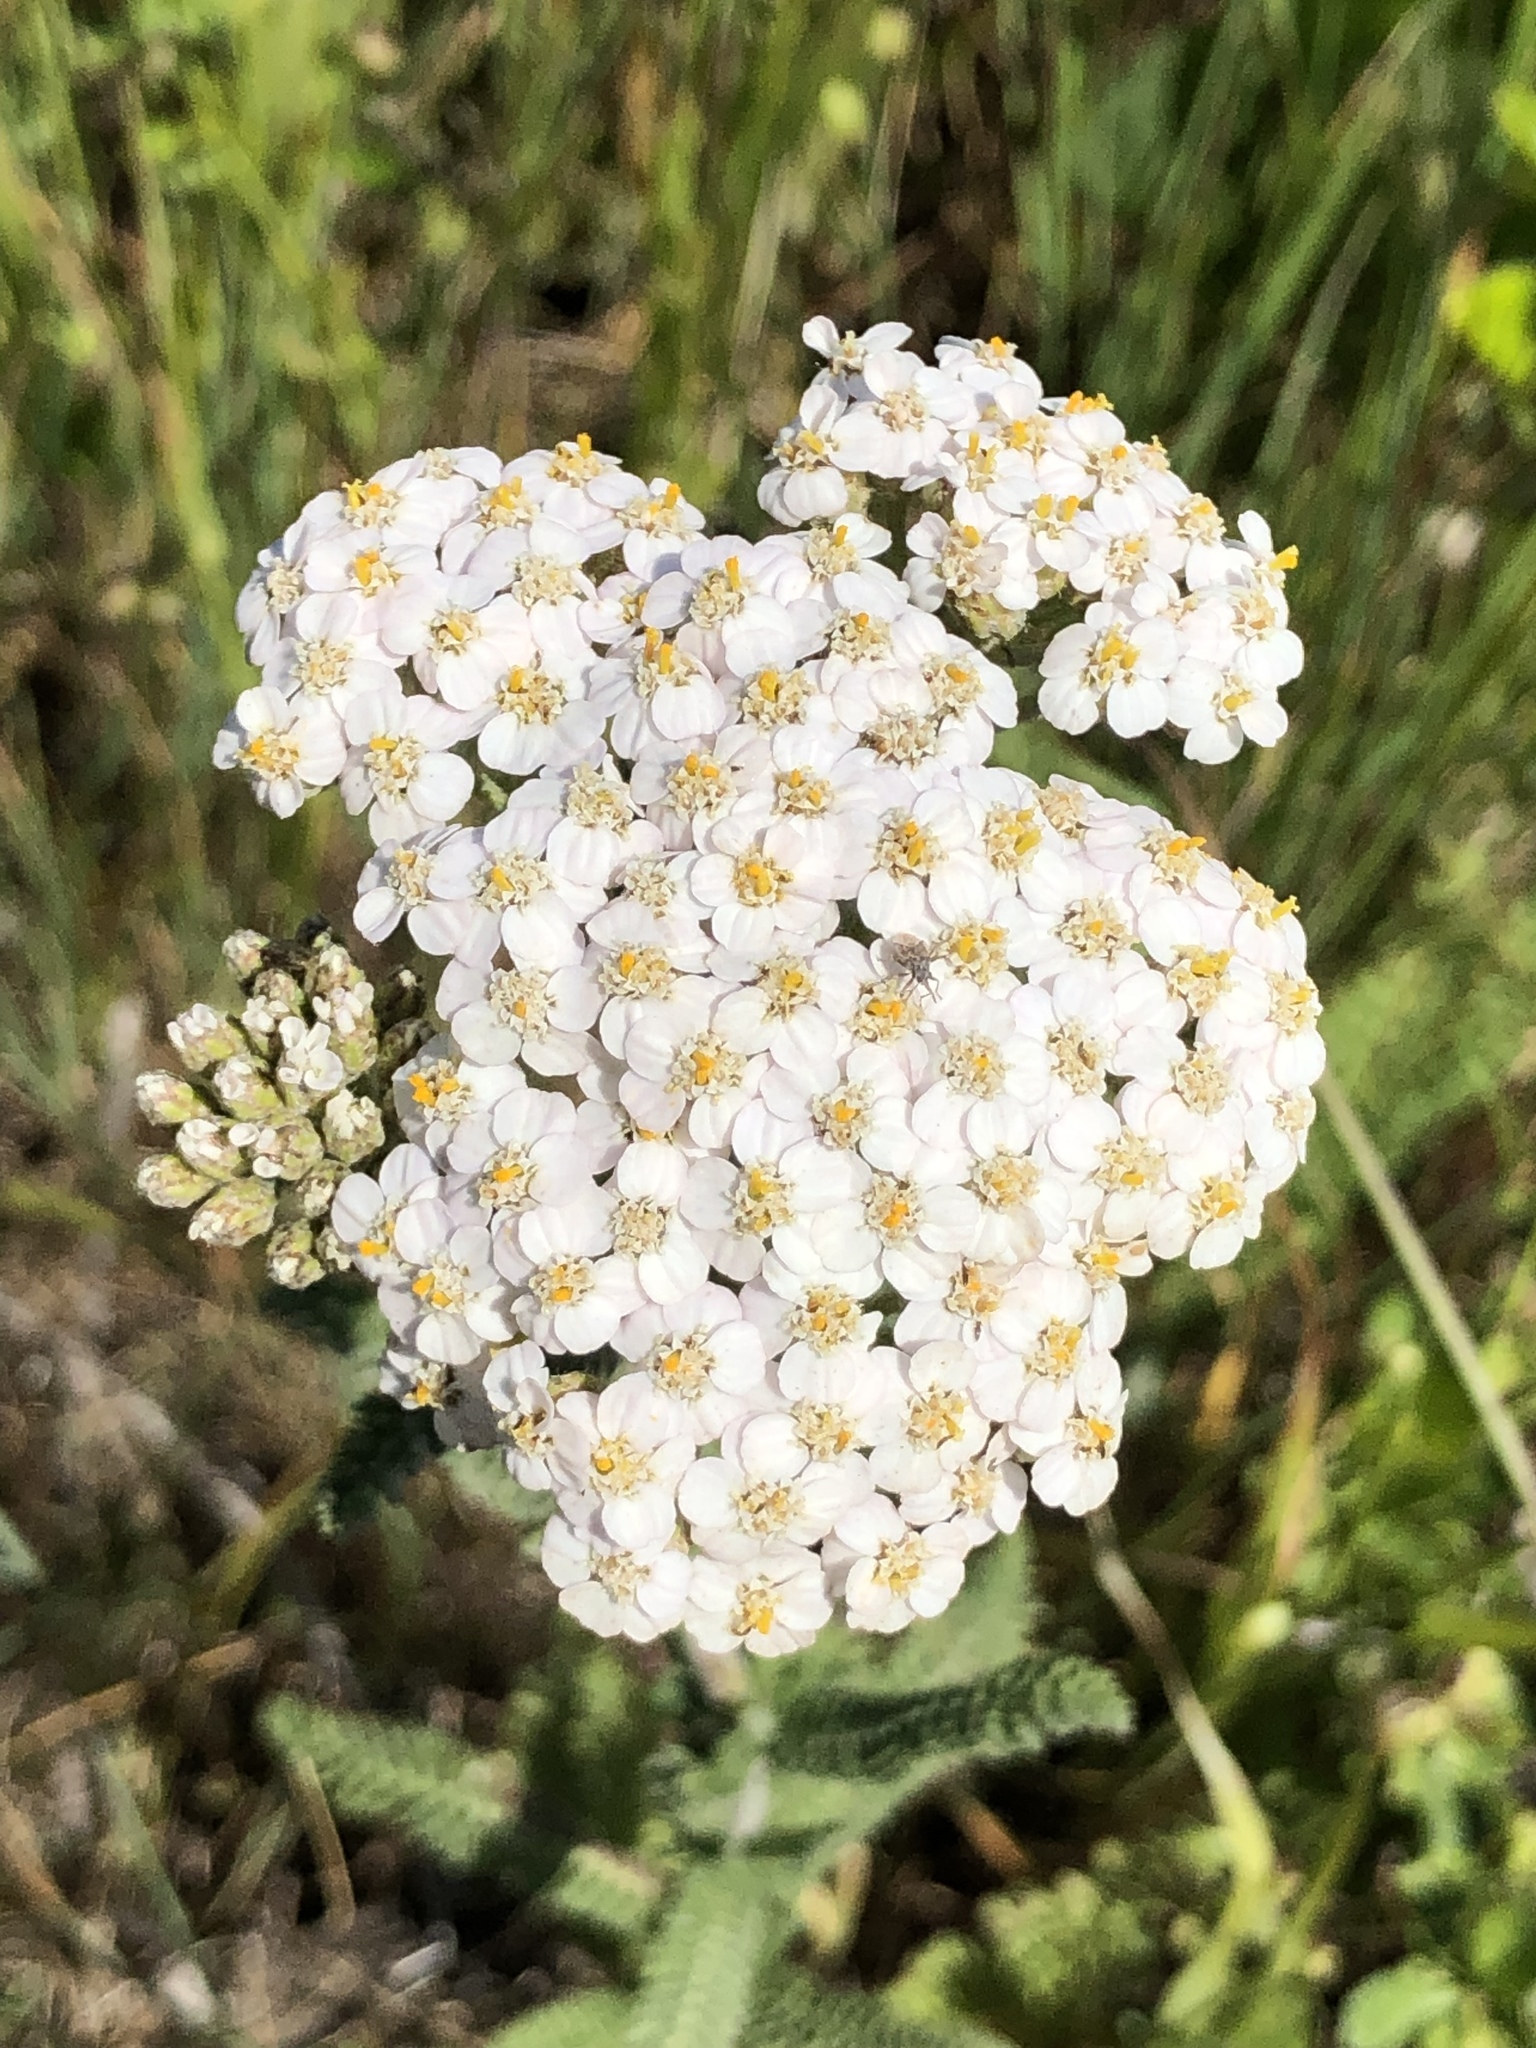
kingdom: Plantae
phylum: Tracheophyta
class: Magnoliopsida
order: Asterales
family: Asteraceae
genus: Achillea
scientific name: Achillea millefolium
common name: Yarrow
